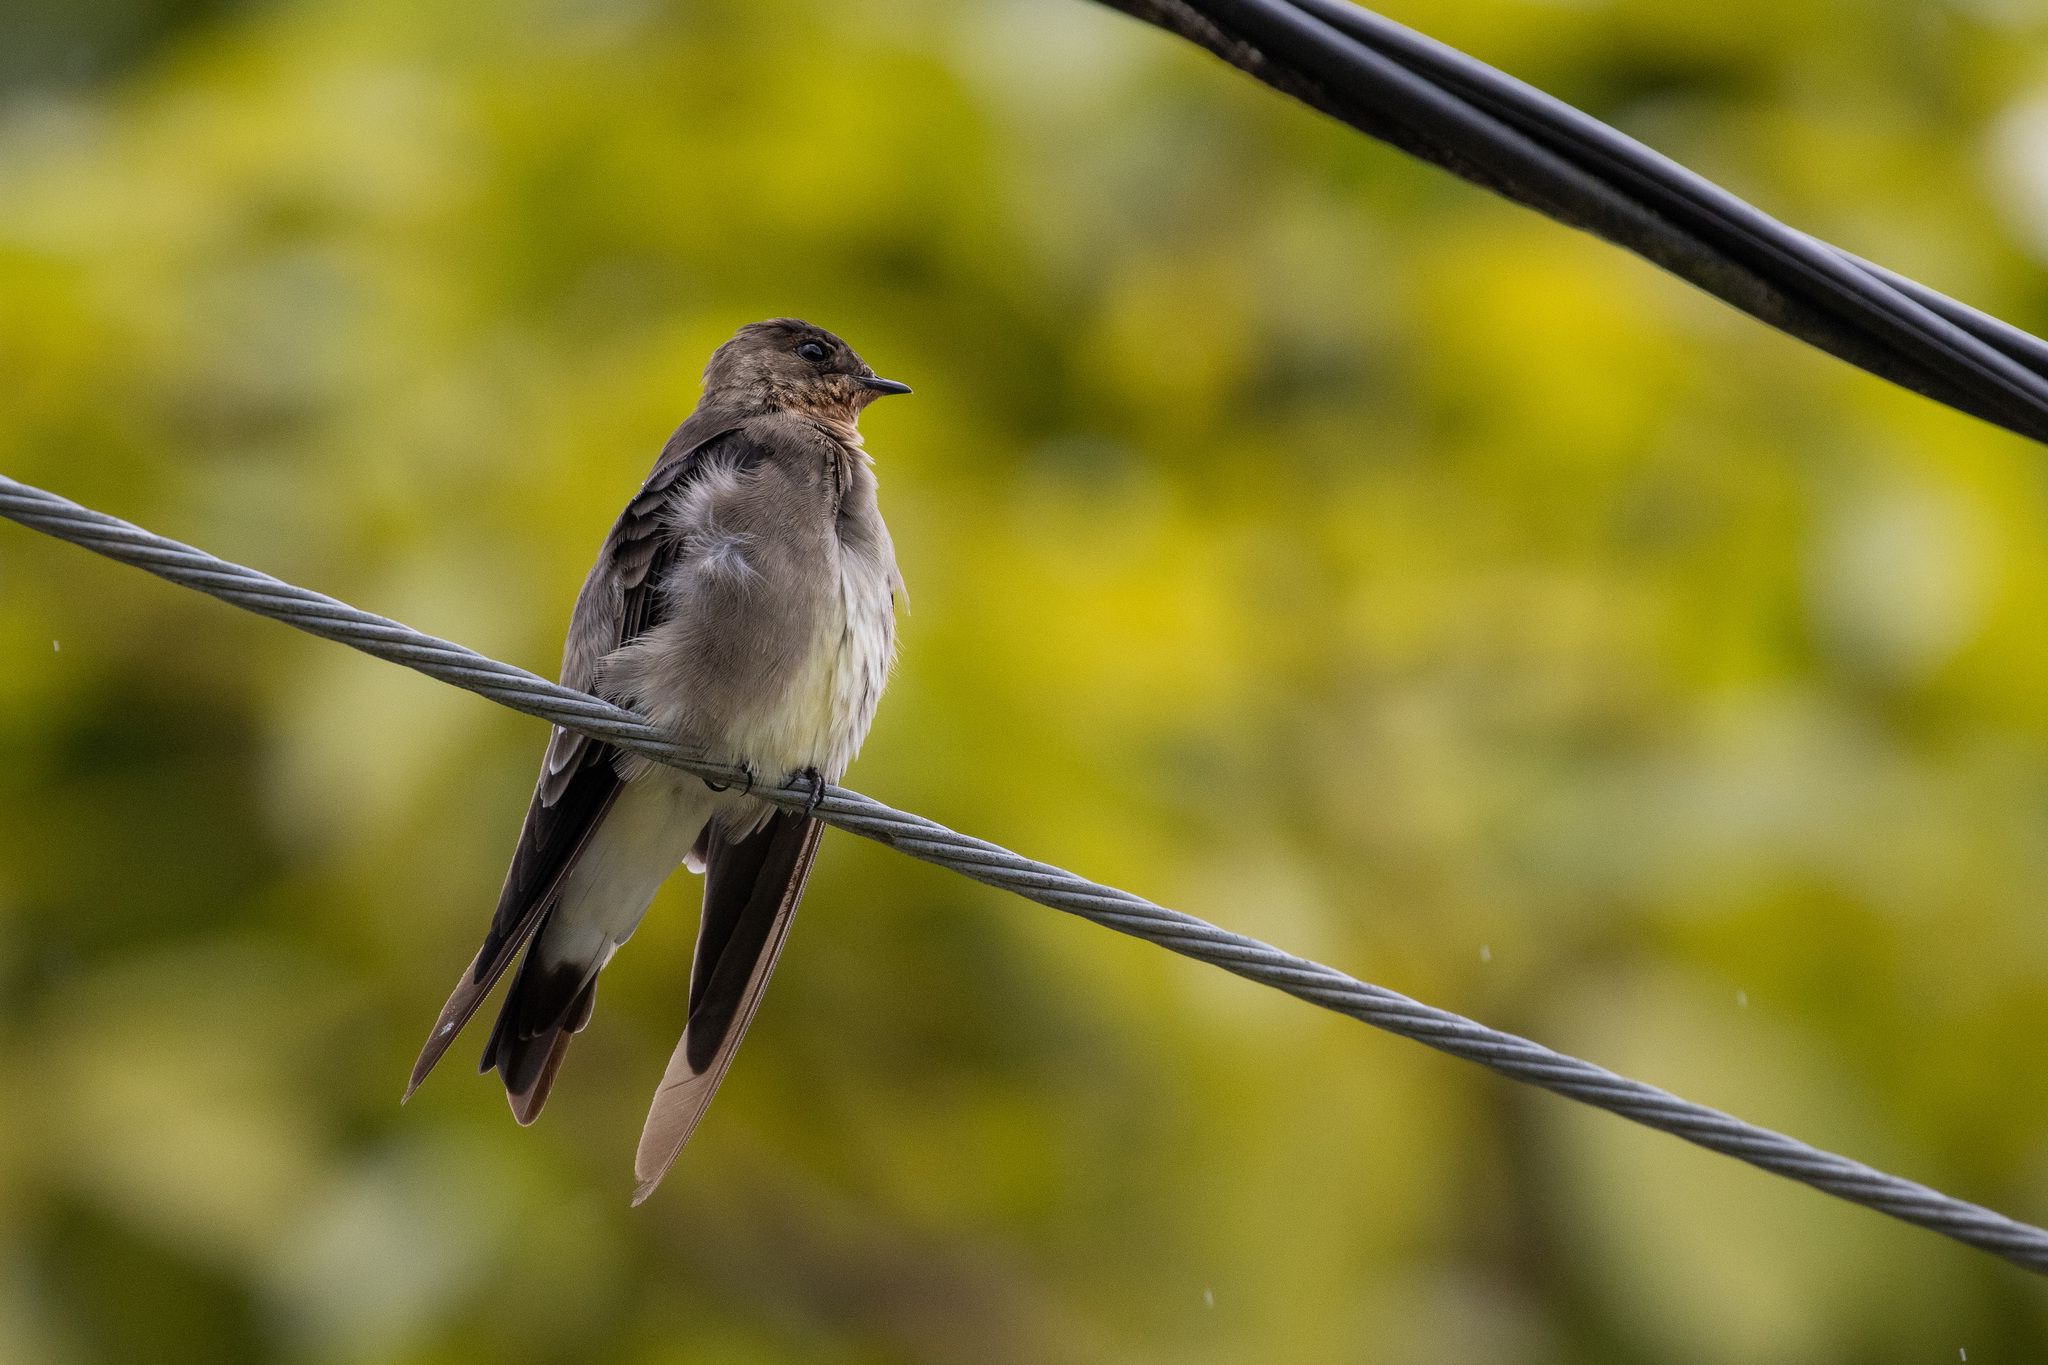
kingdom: Animalia
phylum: Chordata
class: Aves
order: Passeriformes
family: Hirundinidae
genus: Stelgidopteryx
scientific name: Stelgidopteryx ruficollis
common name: Southern rough-winged swallow
